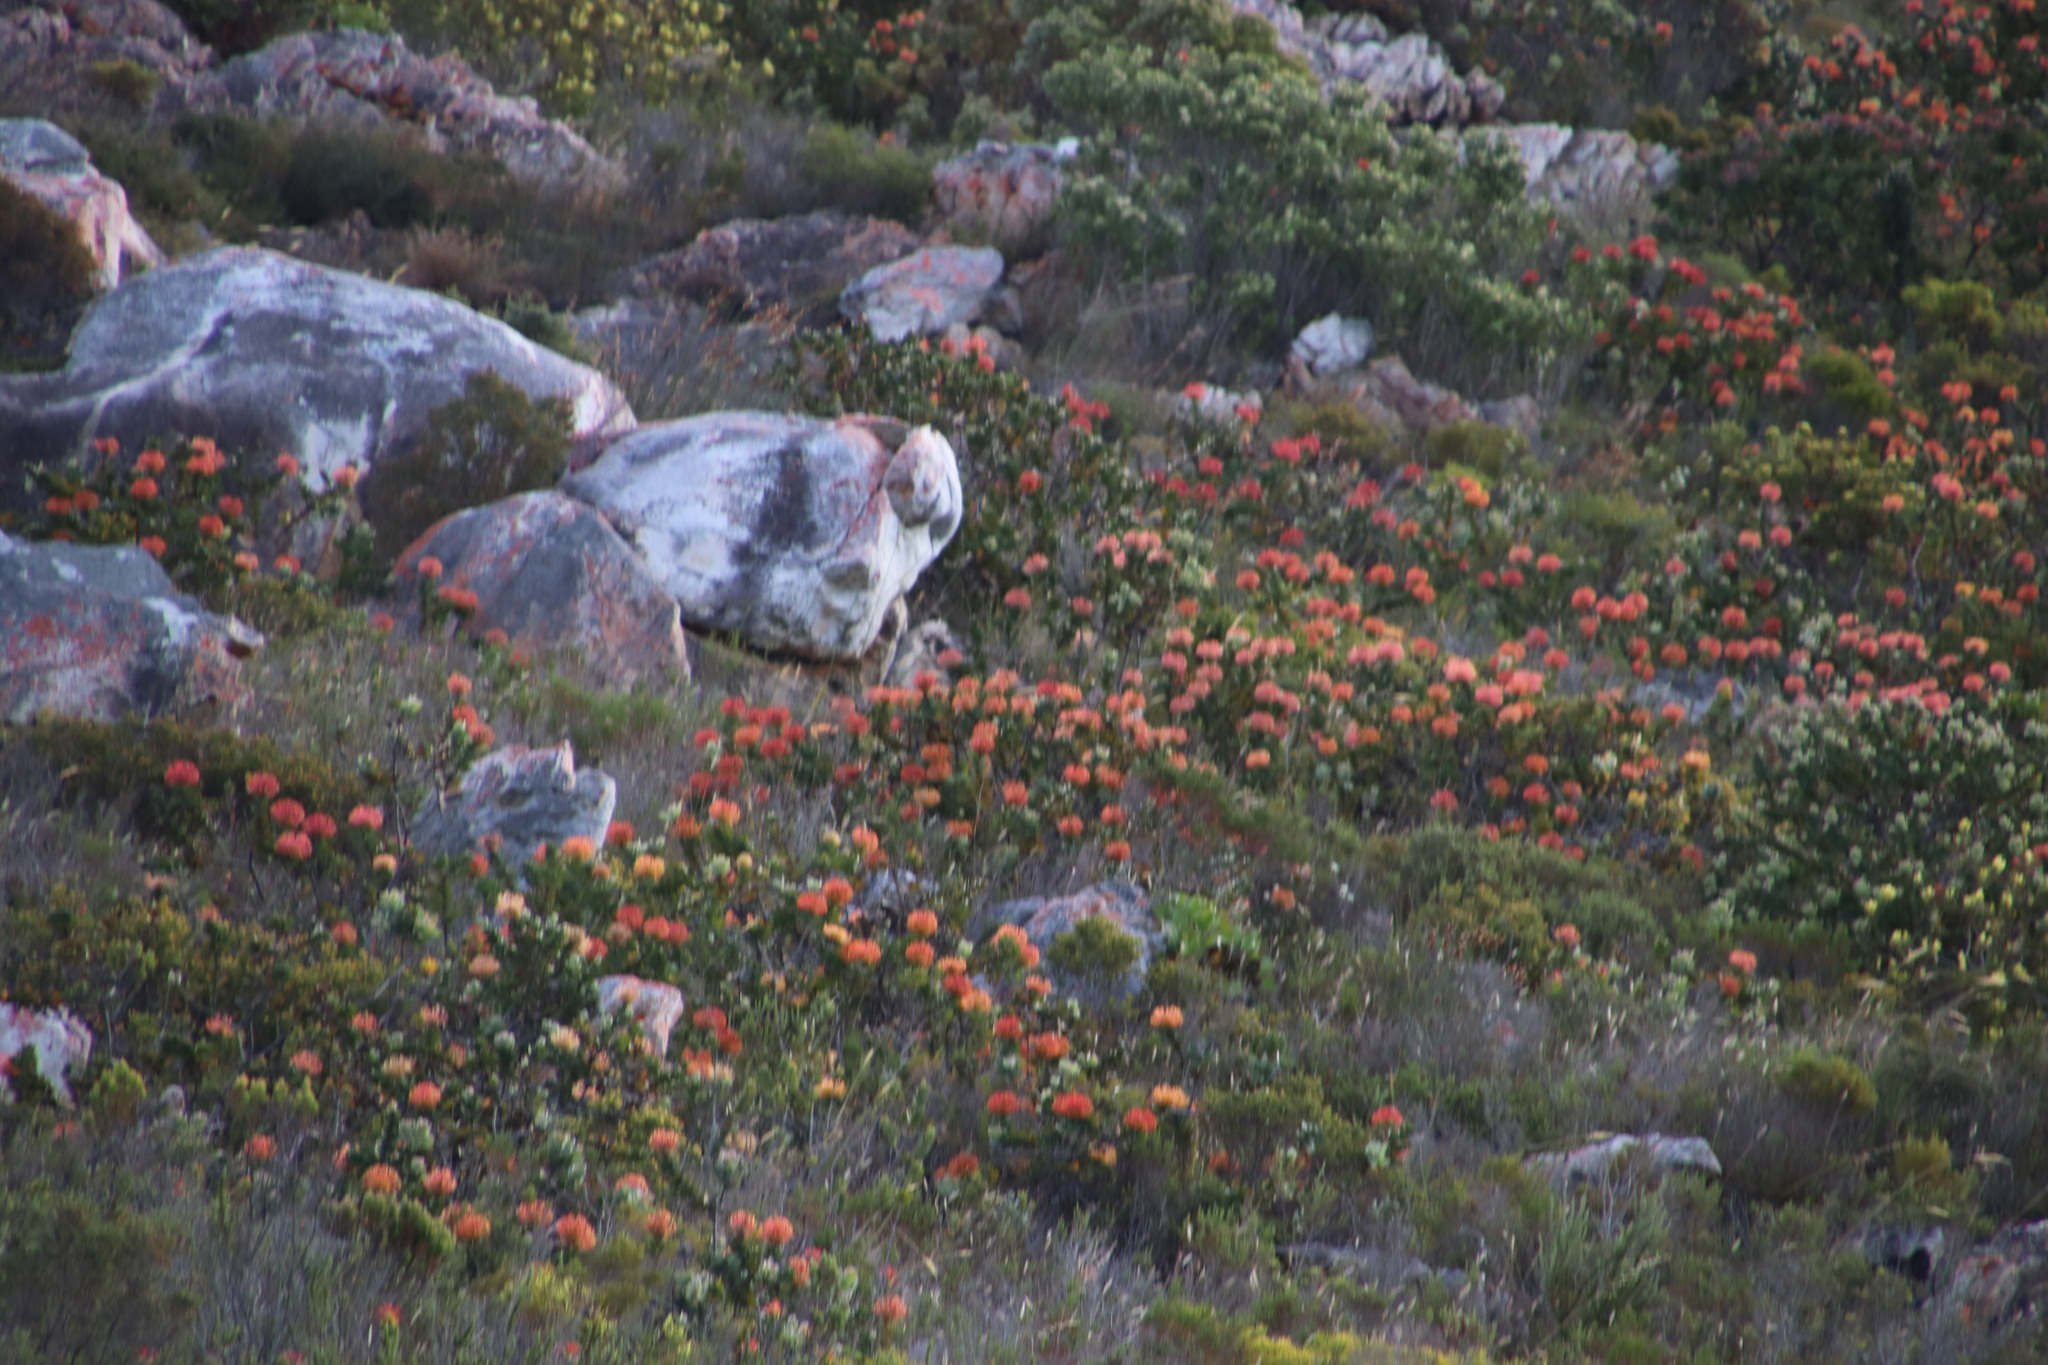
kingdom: Plantae
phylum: Tracheophyta
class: Magnoliopsida
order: Proteales
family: Proteaceae
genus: Leucospermum
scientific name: Leucospermum patersonii
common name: False tree pincushion
